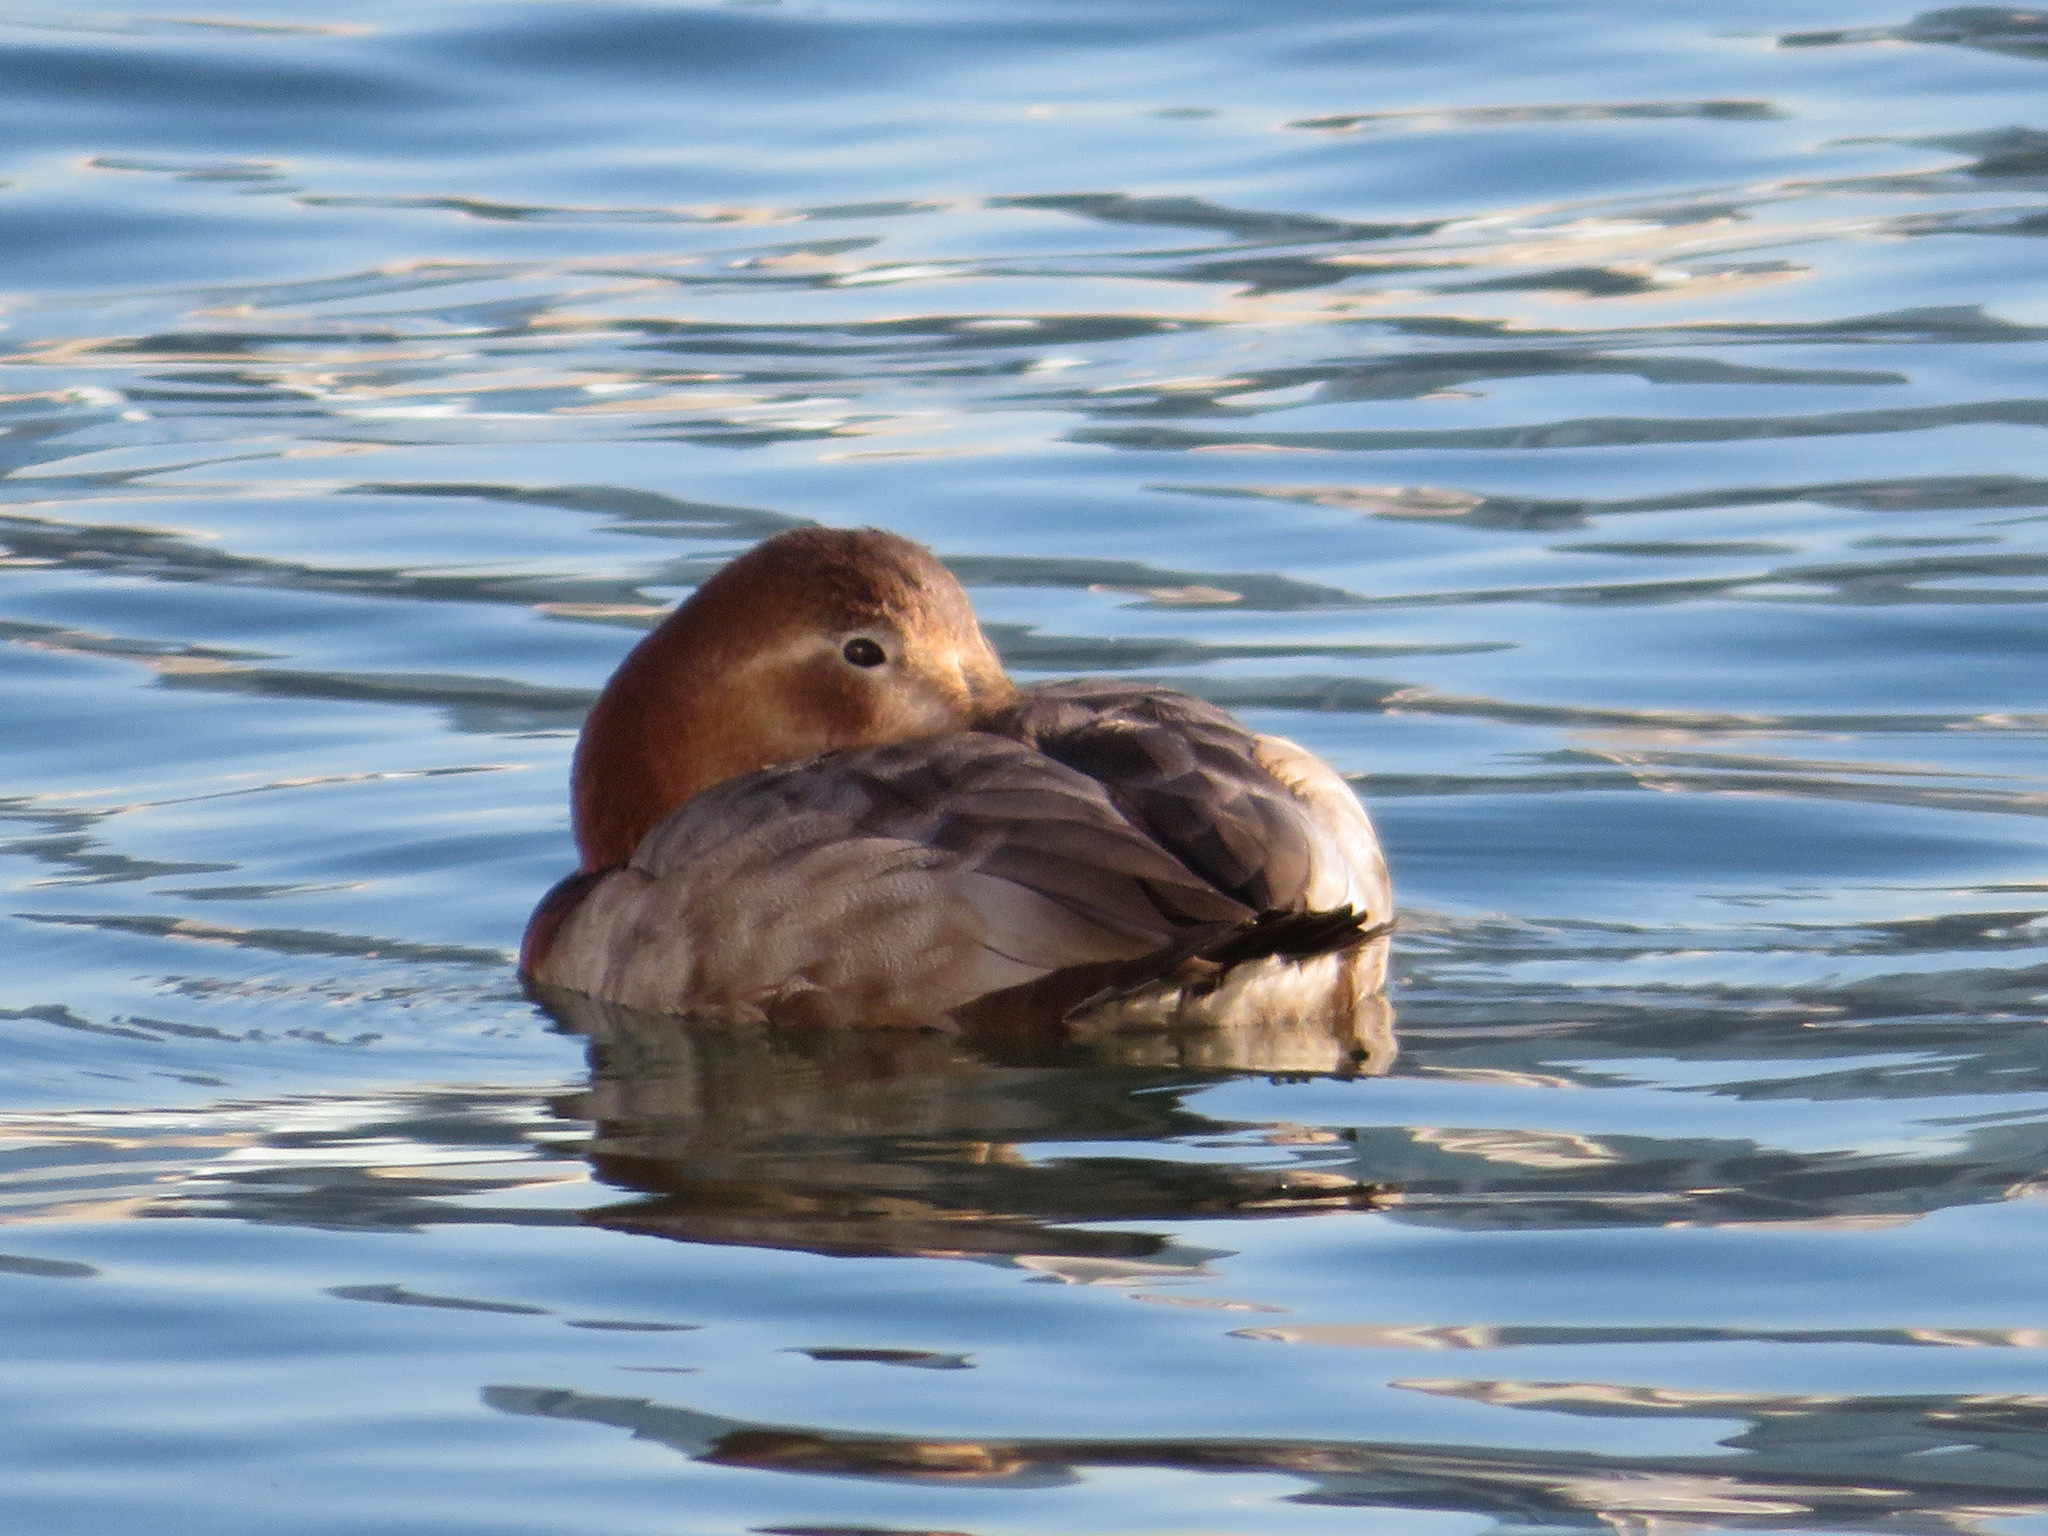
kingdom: Animalia
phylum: Chordata
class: Aves
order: Anseriformes
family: Anatidae
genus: Aythya
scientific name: Aythya ferina
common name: Common pochard
